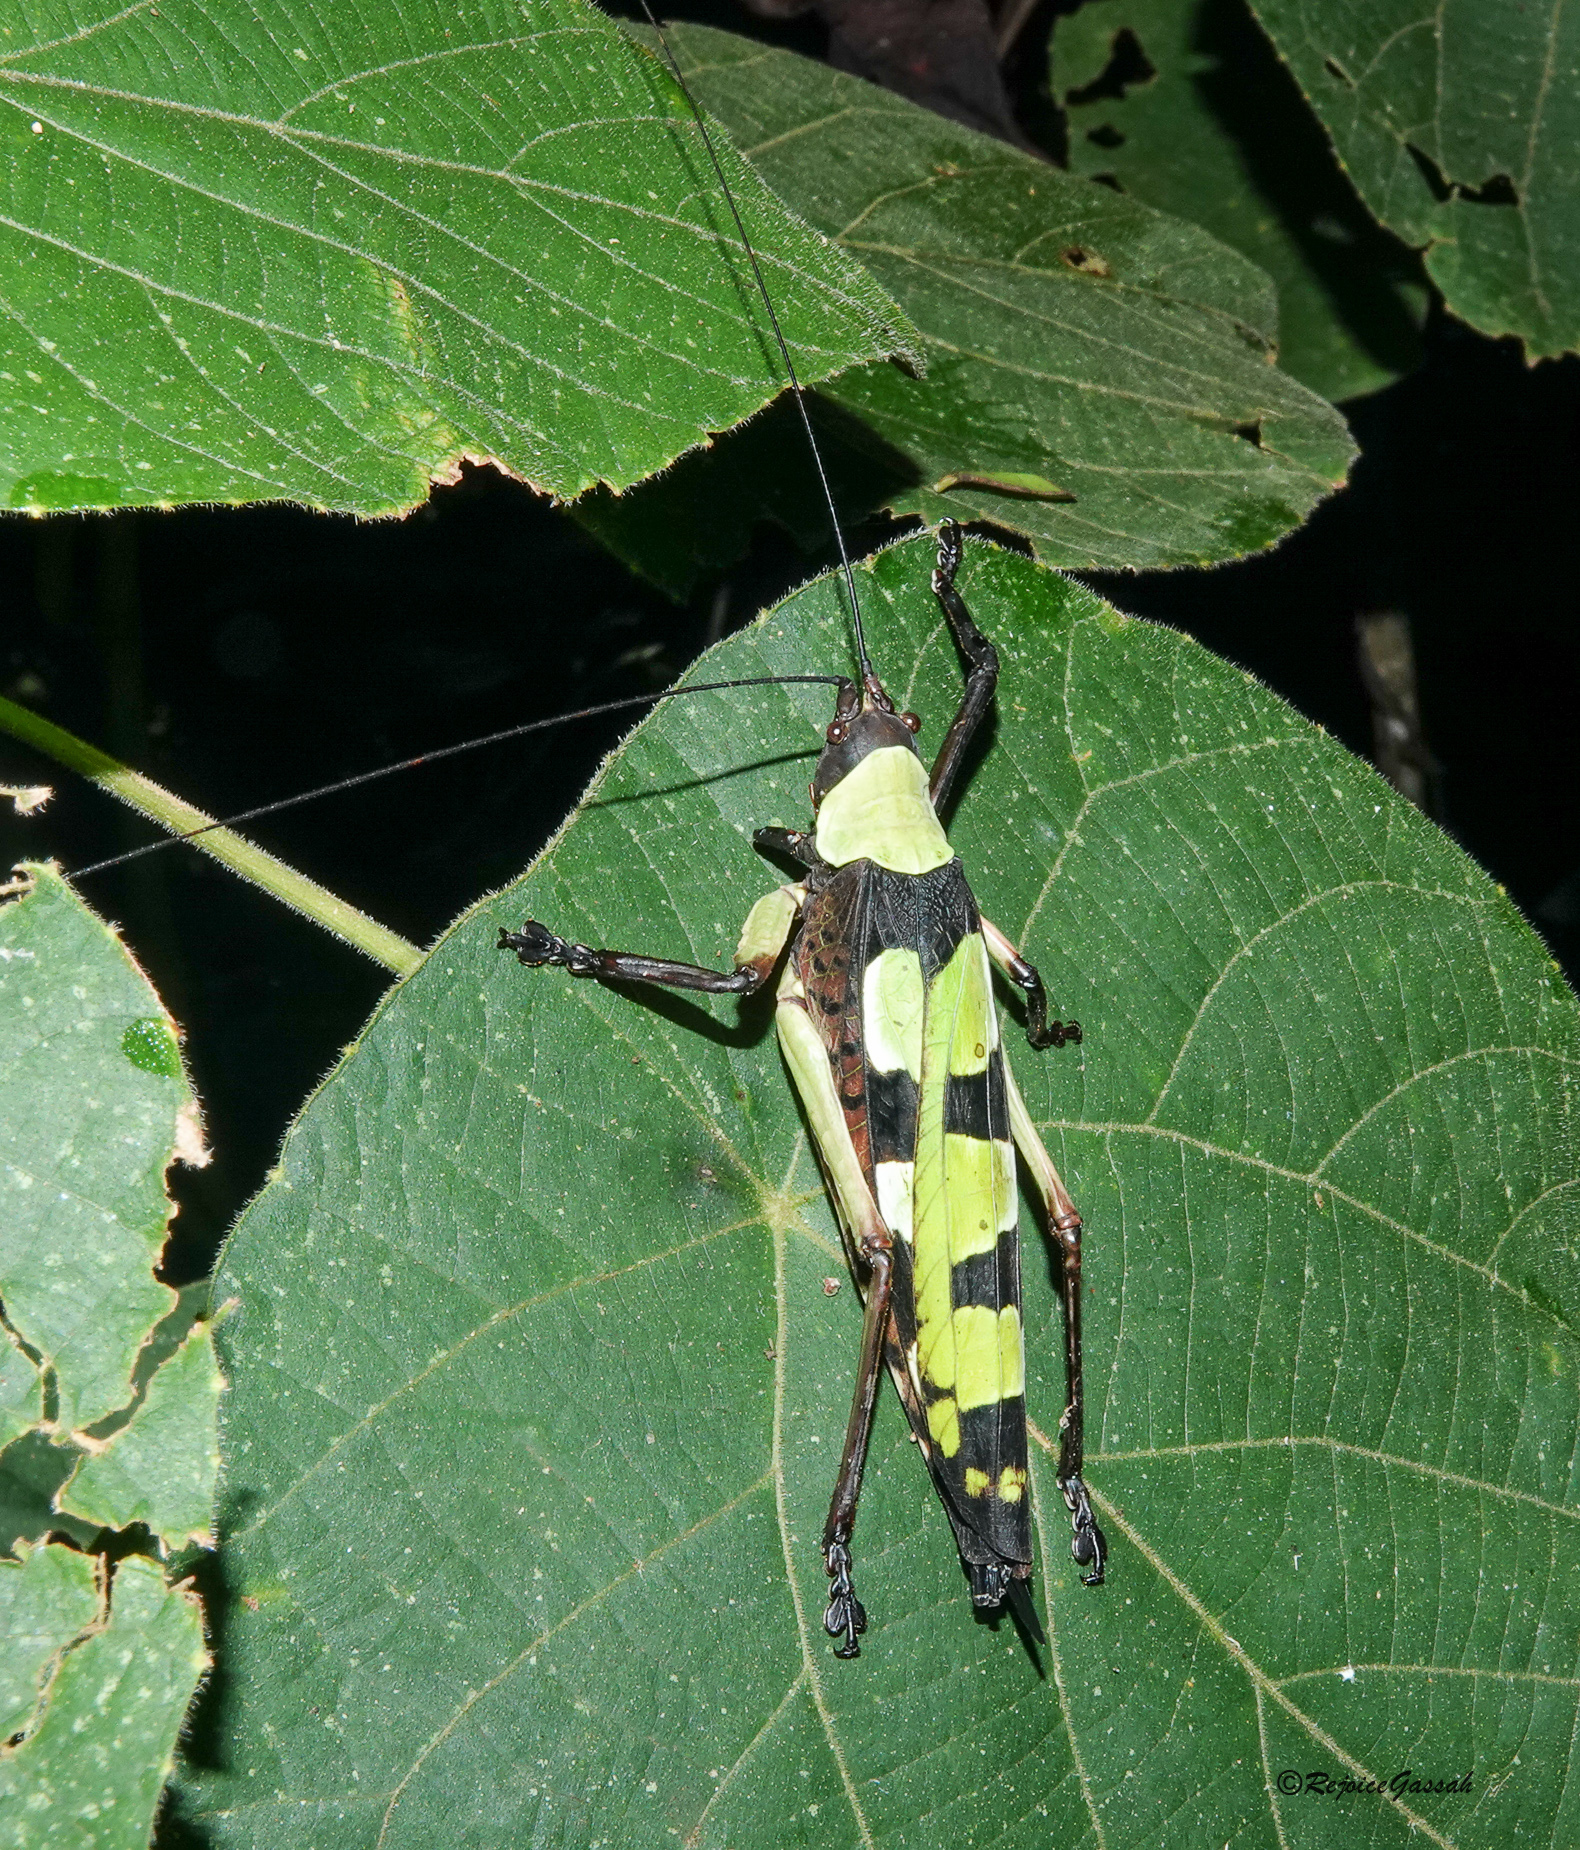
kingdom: Animalia
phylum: Arthropoda
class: Insecta
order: Orthoptera
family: Tettigoniidae
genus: Sanaa
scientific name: Sanaa imperialis
